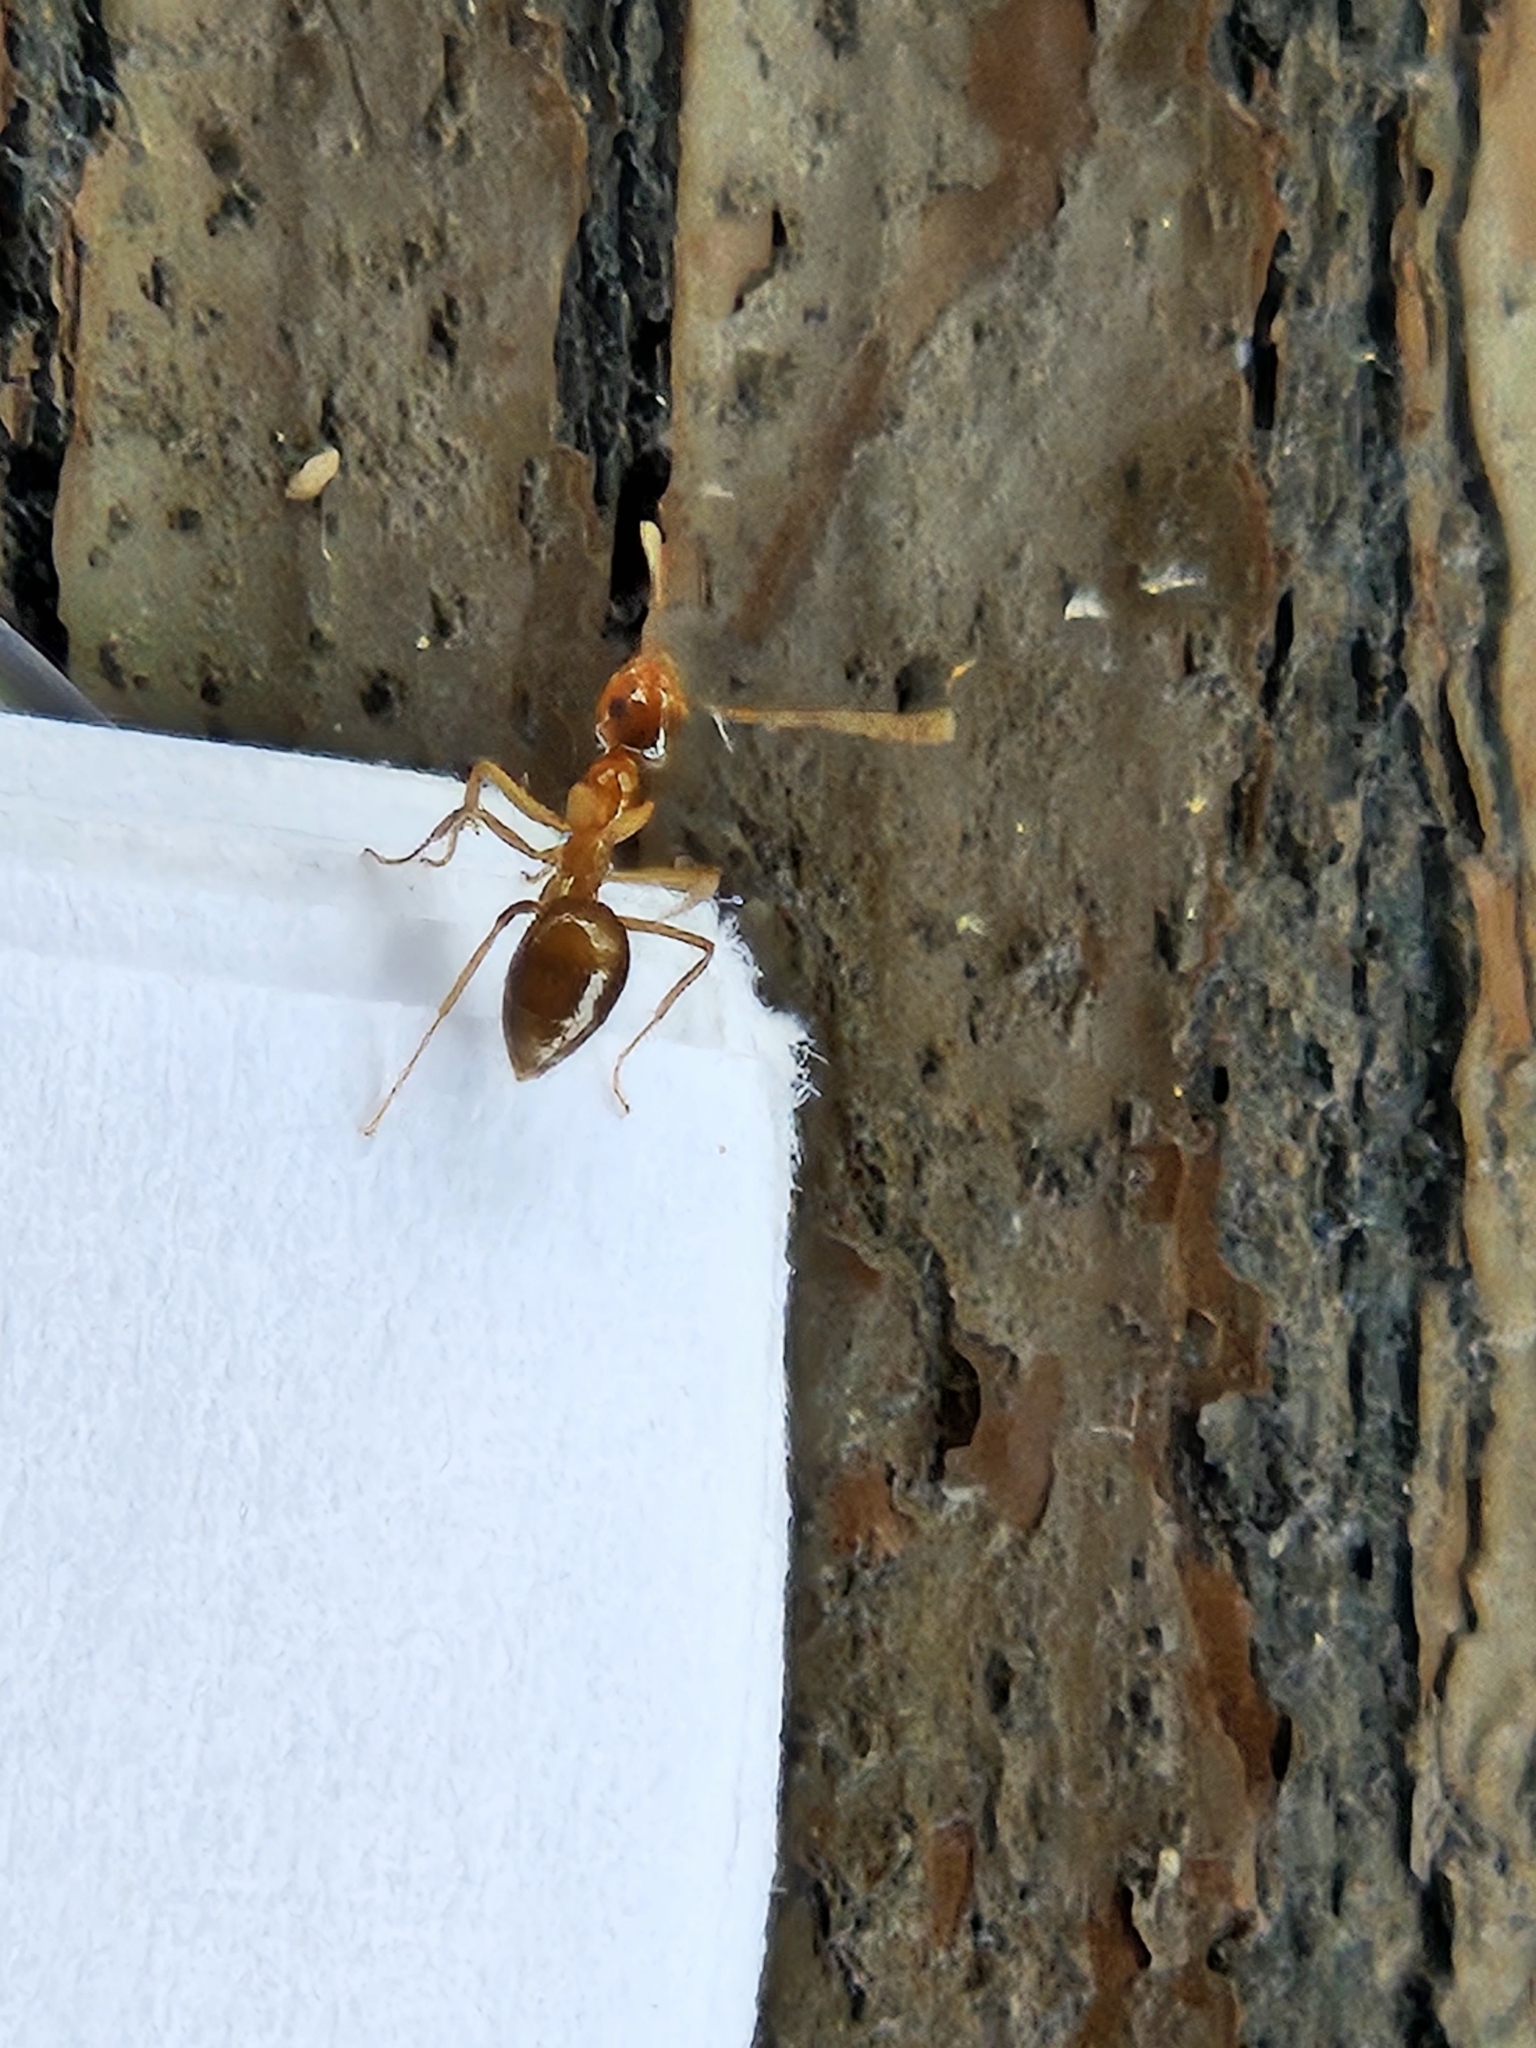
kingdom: Animalia
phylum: Arthropoda
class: Insecta
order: Hymenoptera
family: Formicidae
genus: Prenolepis
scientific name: Prenolepis imparis
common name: Small honey ant
